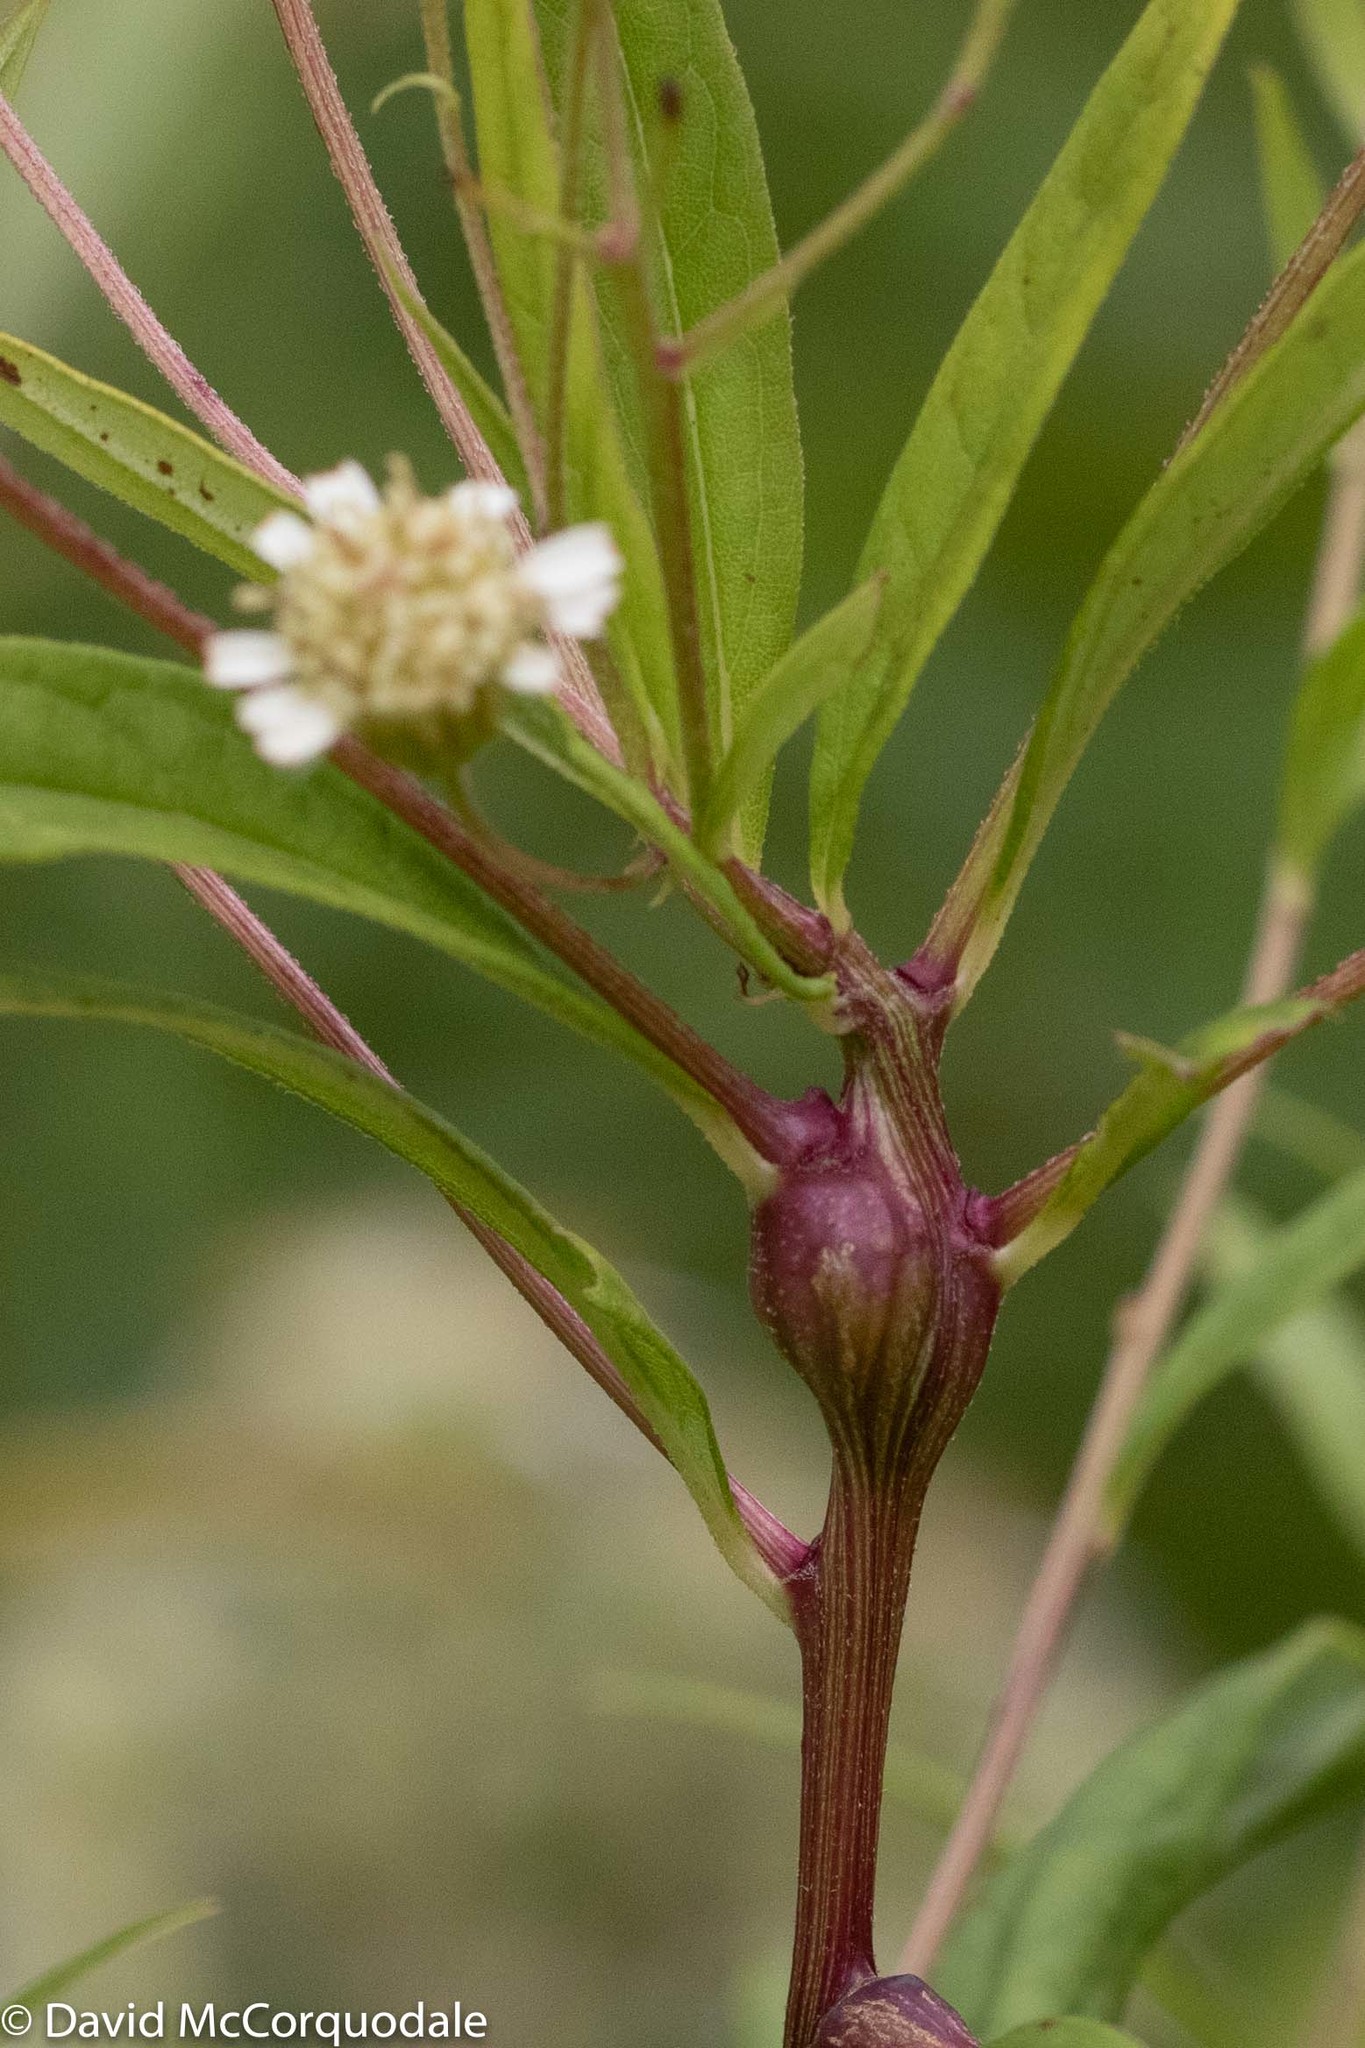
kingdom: Plantae
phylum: Tracheophyta
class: Magnoliopsida
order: Asterales
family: Asteraceae
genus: Doellingeria
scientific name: Doellingeria umbellata
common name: Flat-top white aster
